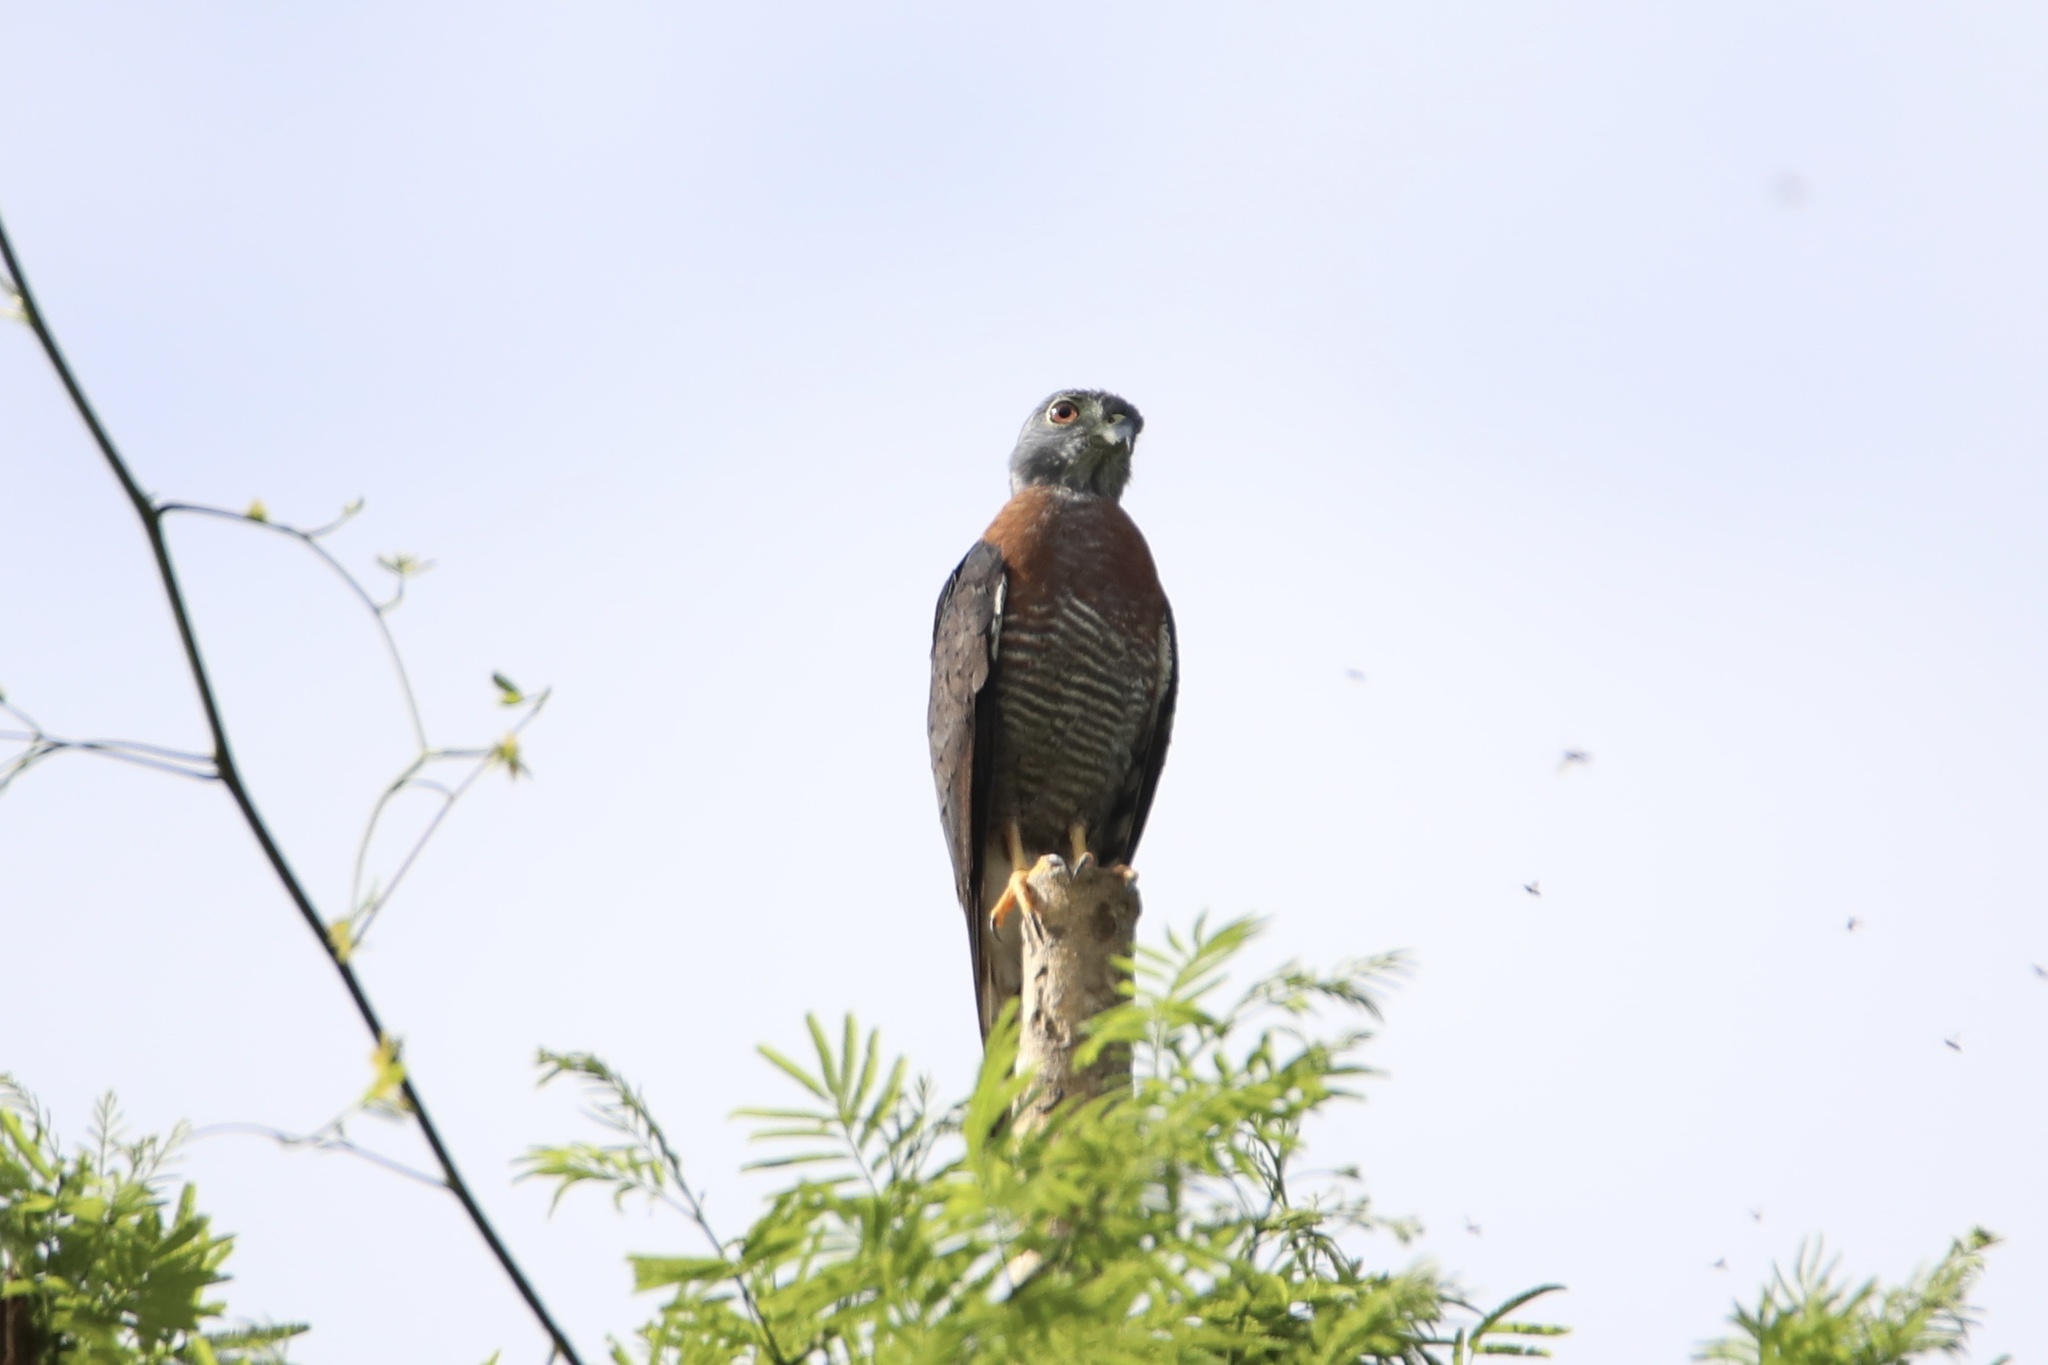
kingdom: Animalia
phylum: Chordata
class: Aves
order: Accipitriformes
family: Accipitridae
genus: Harpagus
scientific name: Harpagus bidentatus
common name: Double-toothed kite
